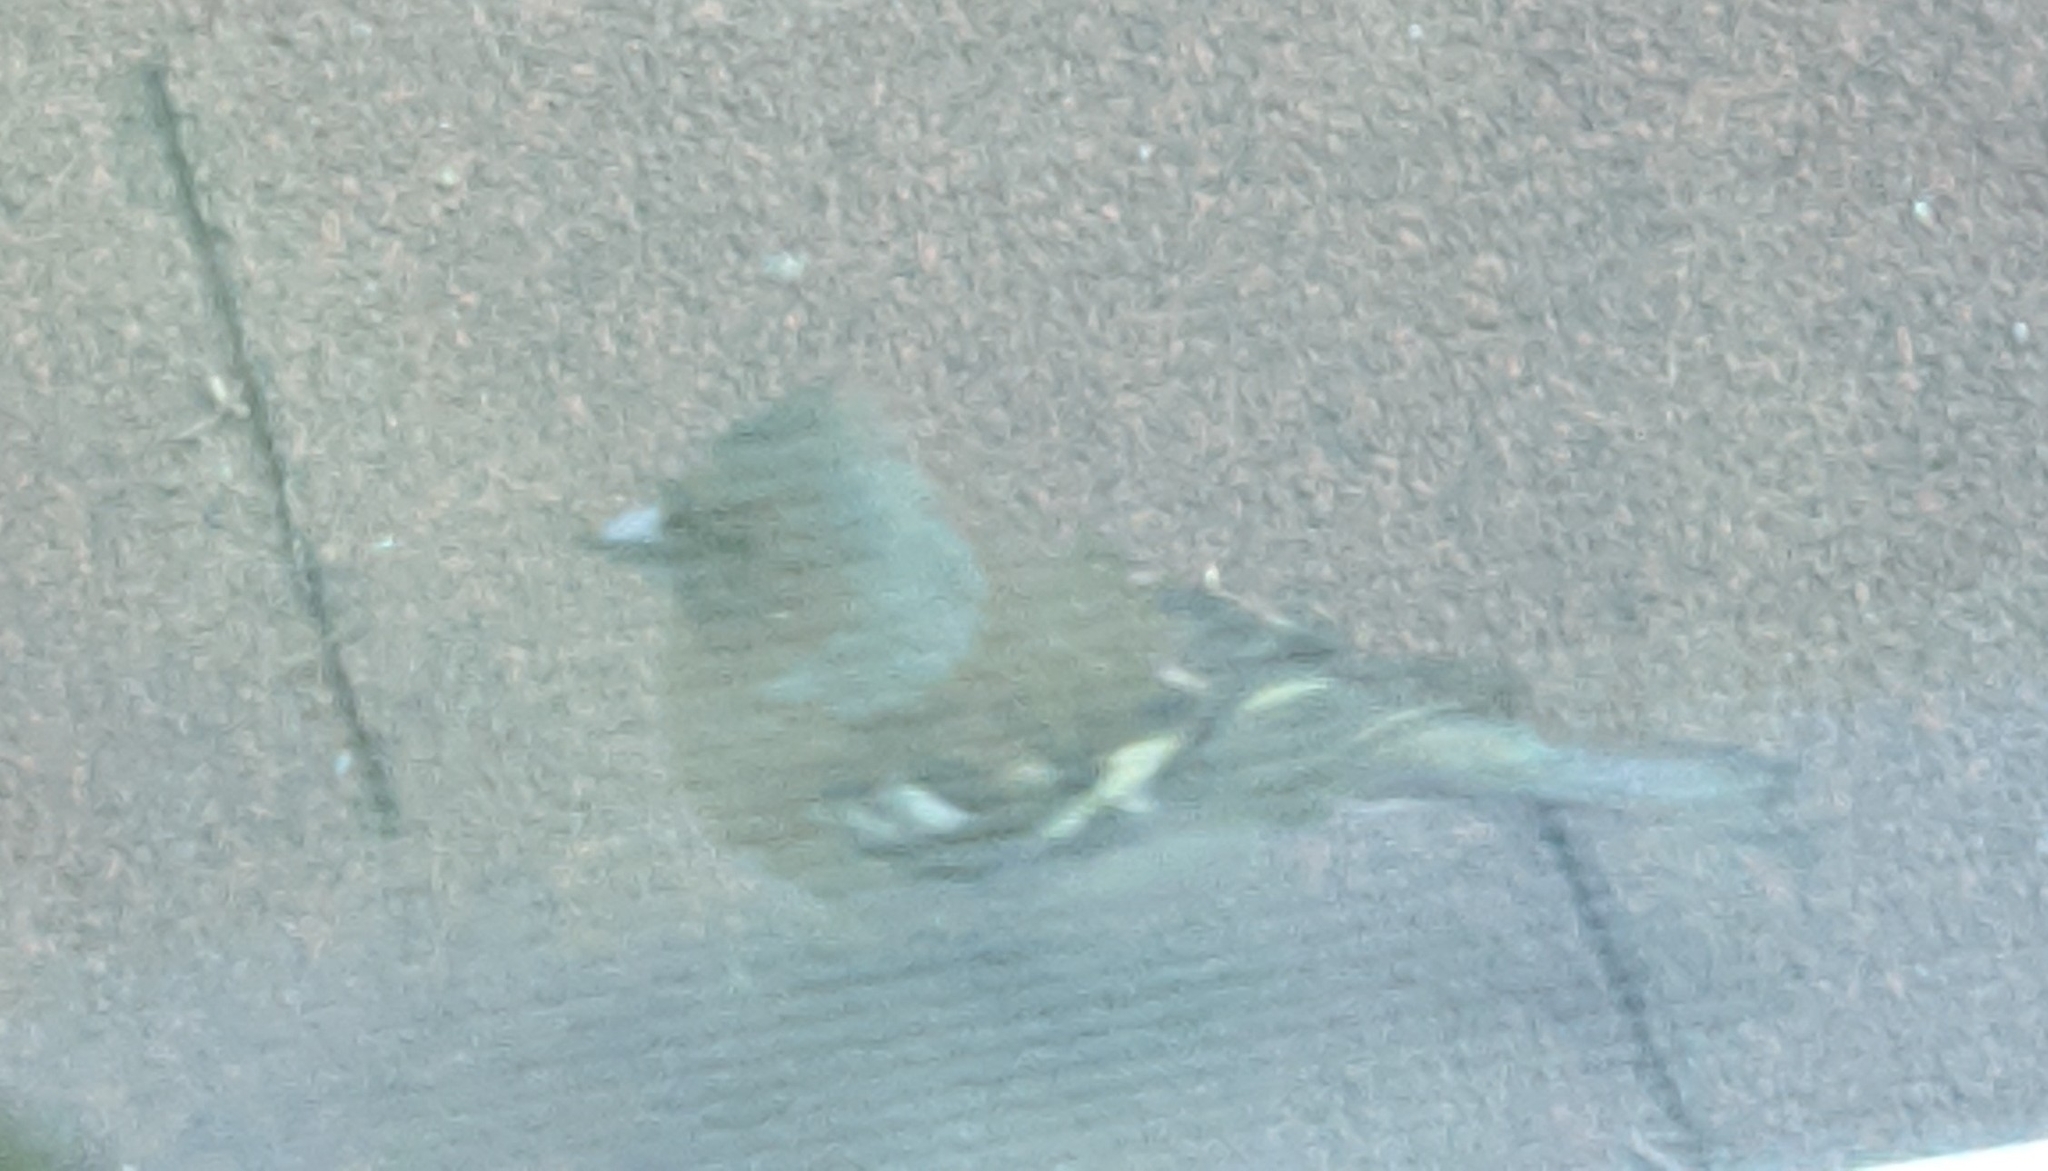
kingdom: Animalia
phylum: Chordata
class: Aves
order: Passeriformes
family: Fringillidae
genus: Fringilla
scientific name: Fringilla coelebs
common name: Common chaffinch
